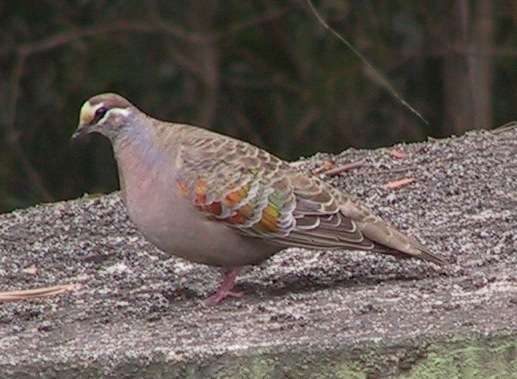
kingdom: Animalia
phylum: Chordata
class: Aves
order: Columbiformes
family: Columbidae
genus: Phaps
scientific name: Phaps chalcoptera
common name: Common bronzewing
